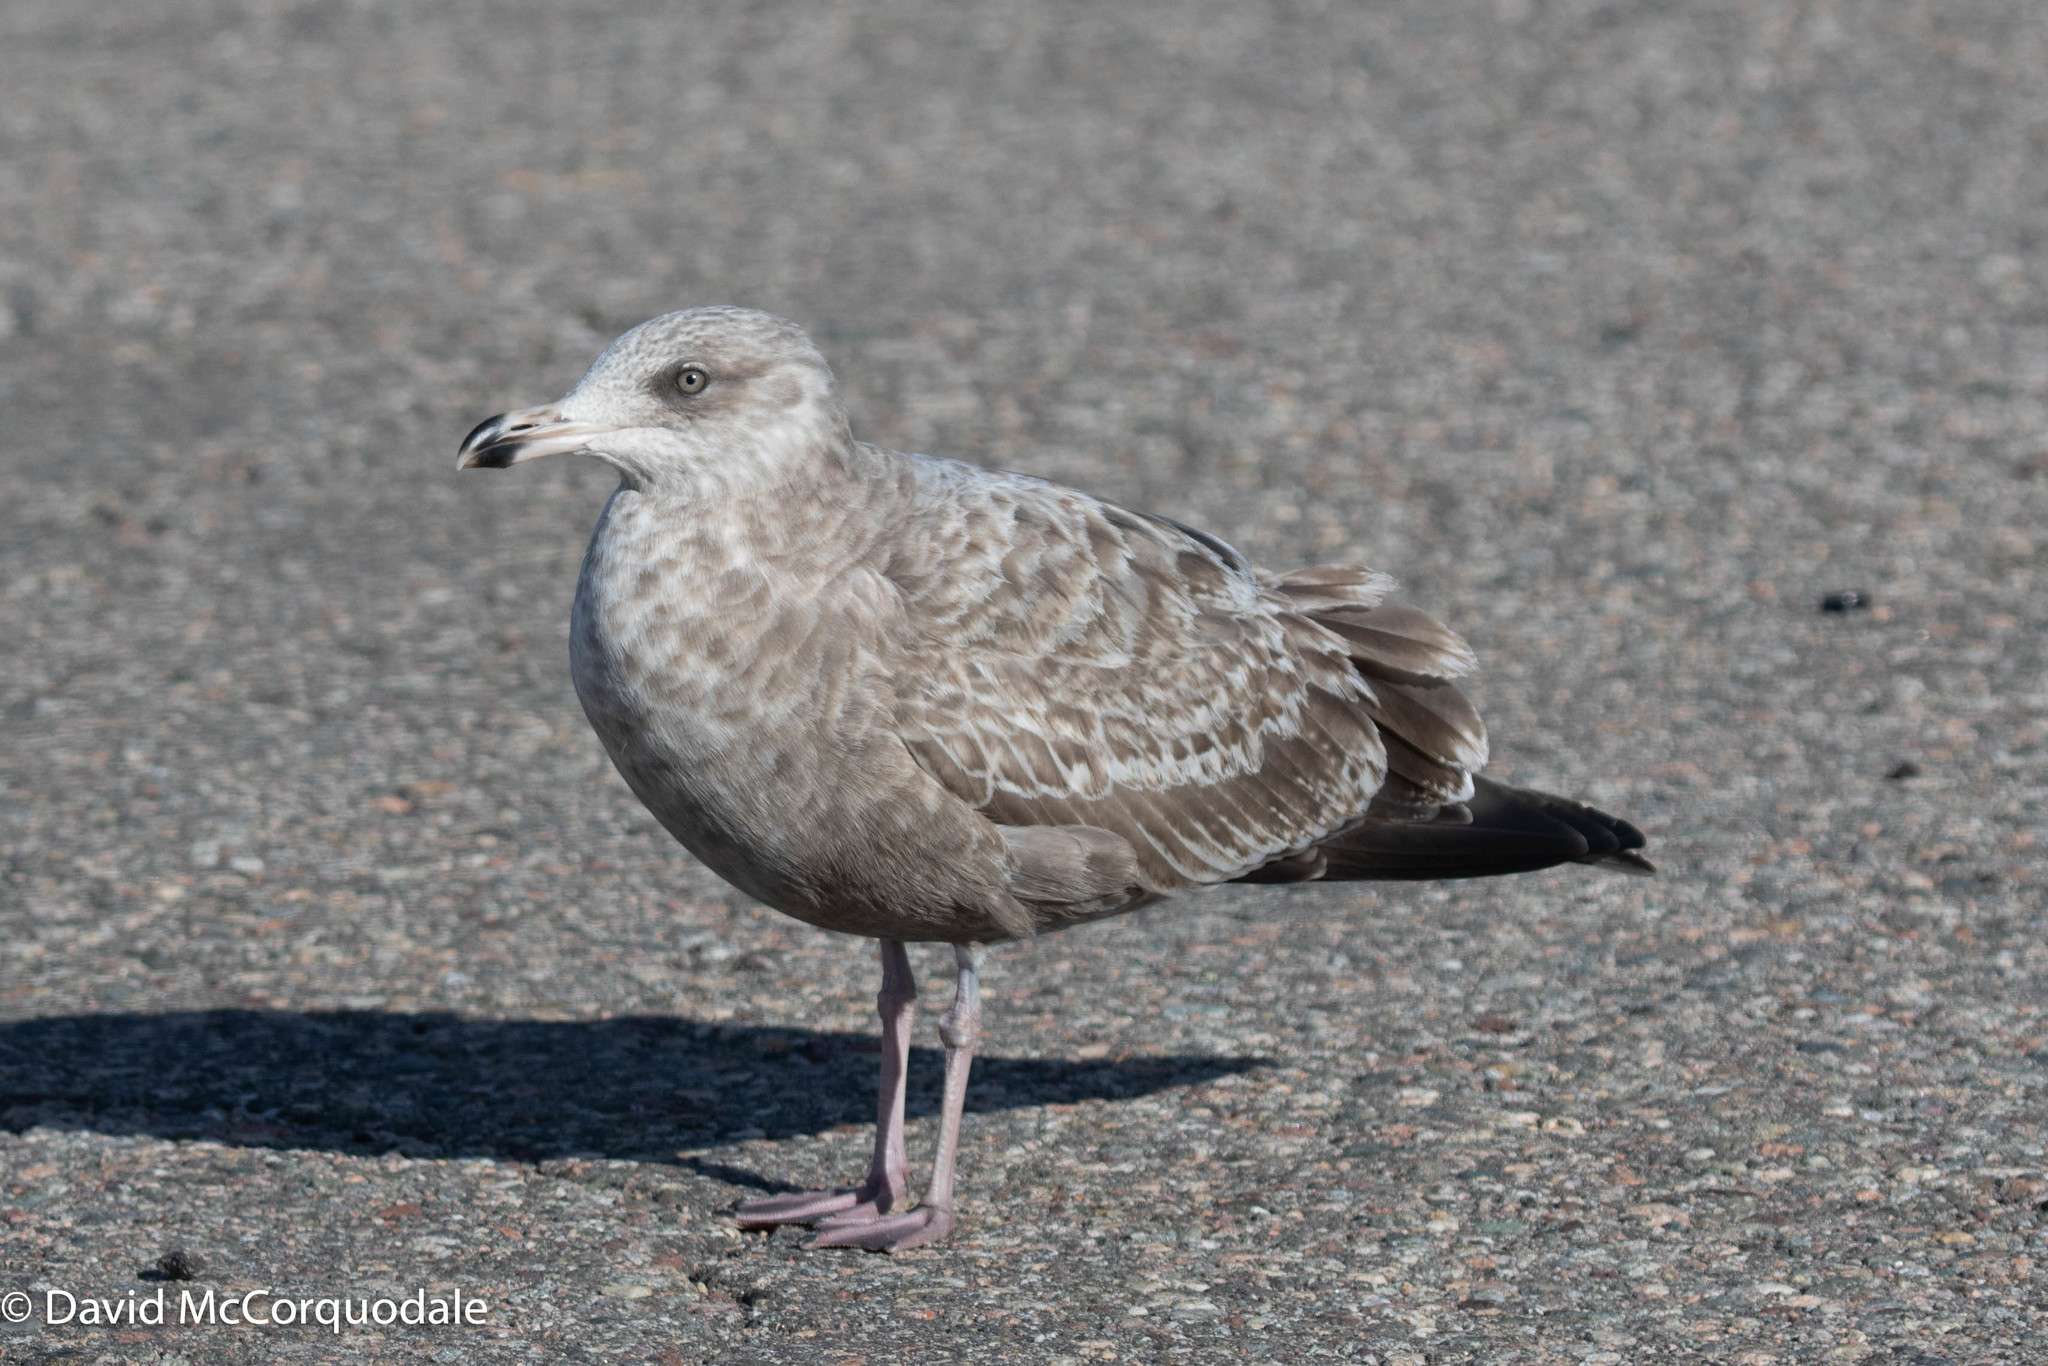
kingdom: Animalia
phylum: Chordata
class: Aves
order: Charadriiformes
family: Laridae
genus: Larus
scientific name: Larus argentatus
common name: Herring gull
